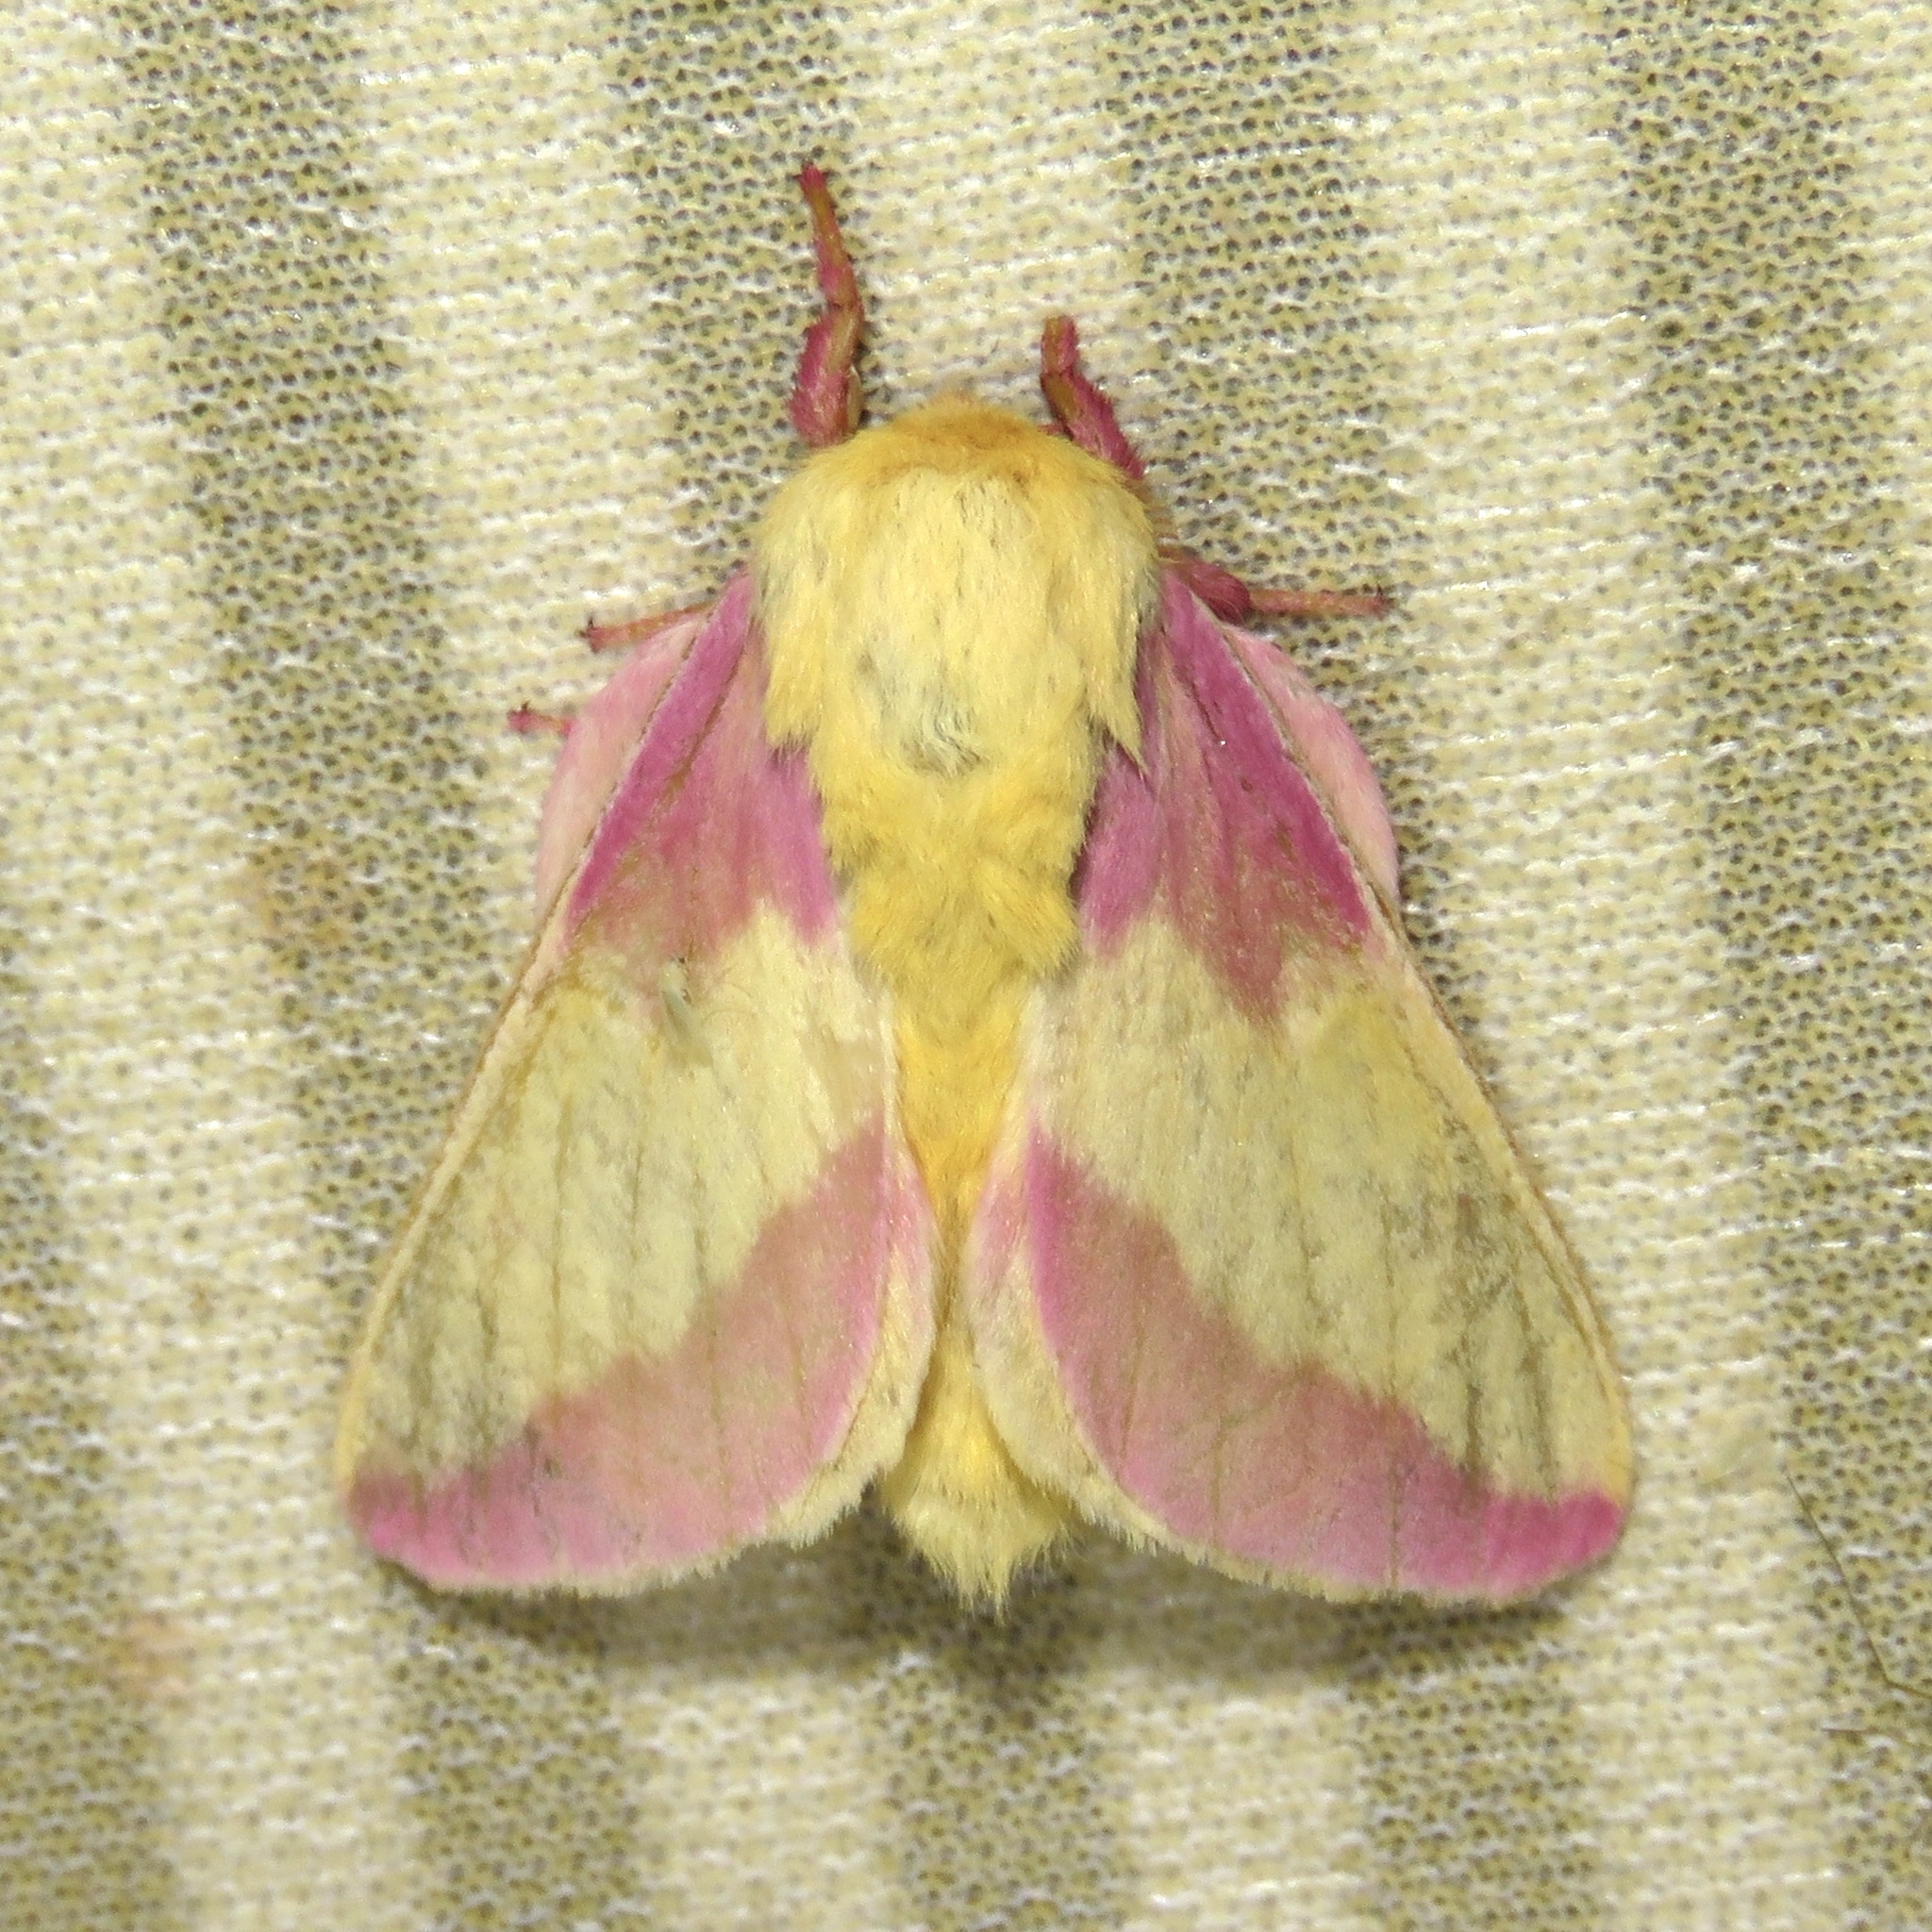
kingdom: Animalia
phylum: Arthropoda
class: Insecta
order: Lepidoptera
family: Saturniidae
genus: Dryocampa
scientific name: Dryocampa rubicunda
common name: Rosy maple moth
